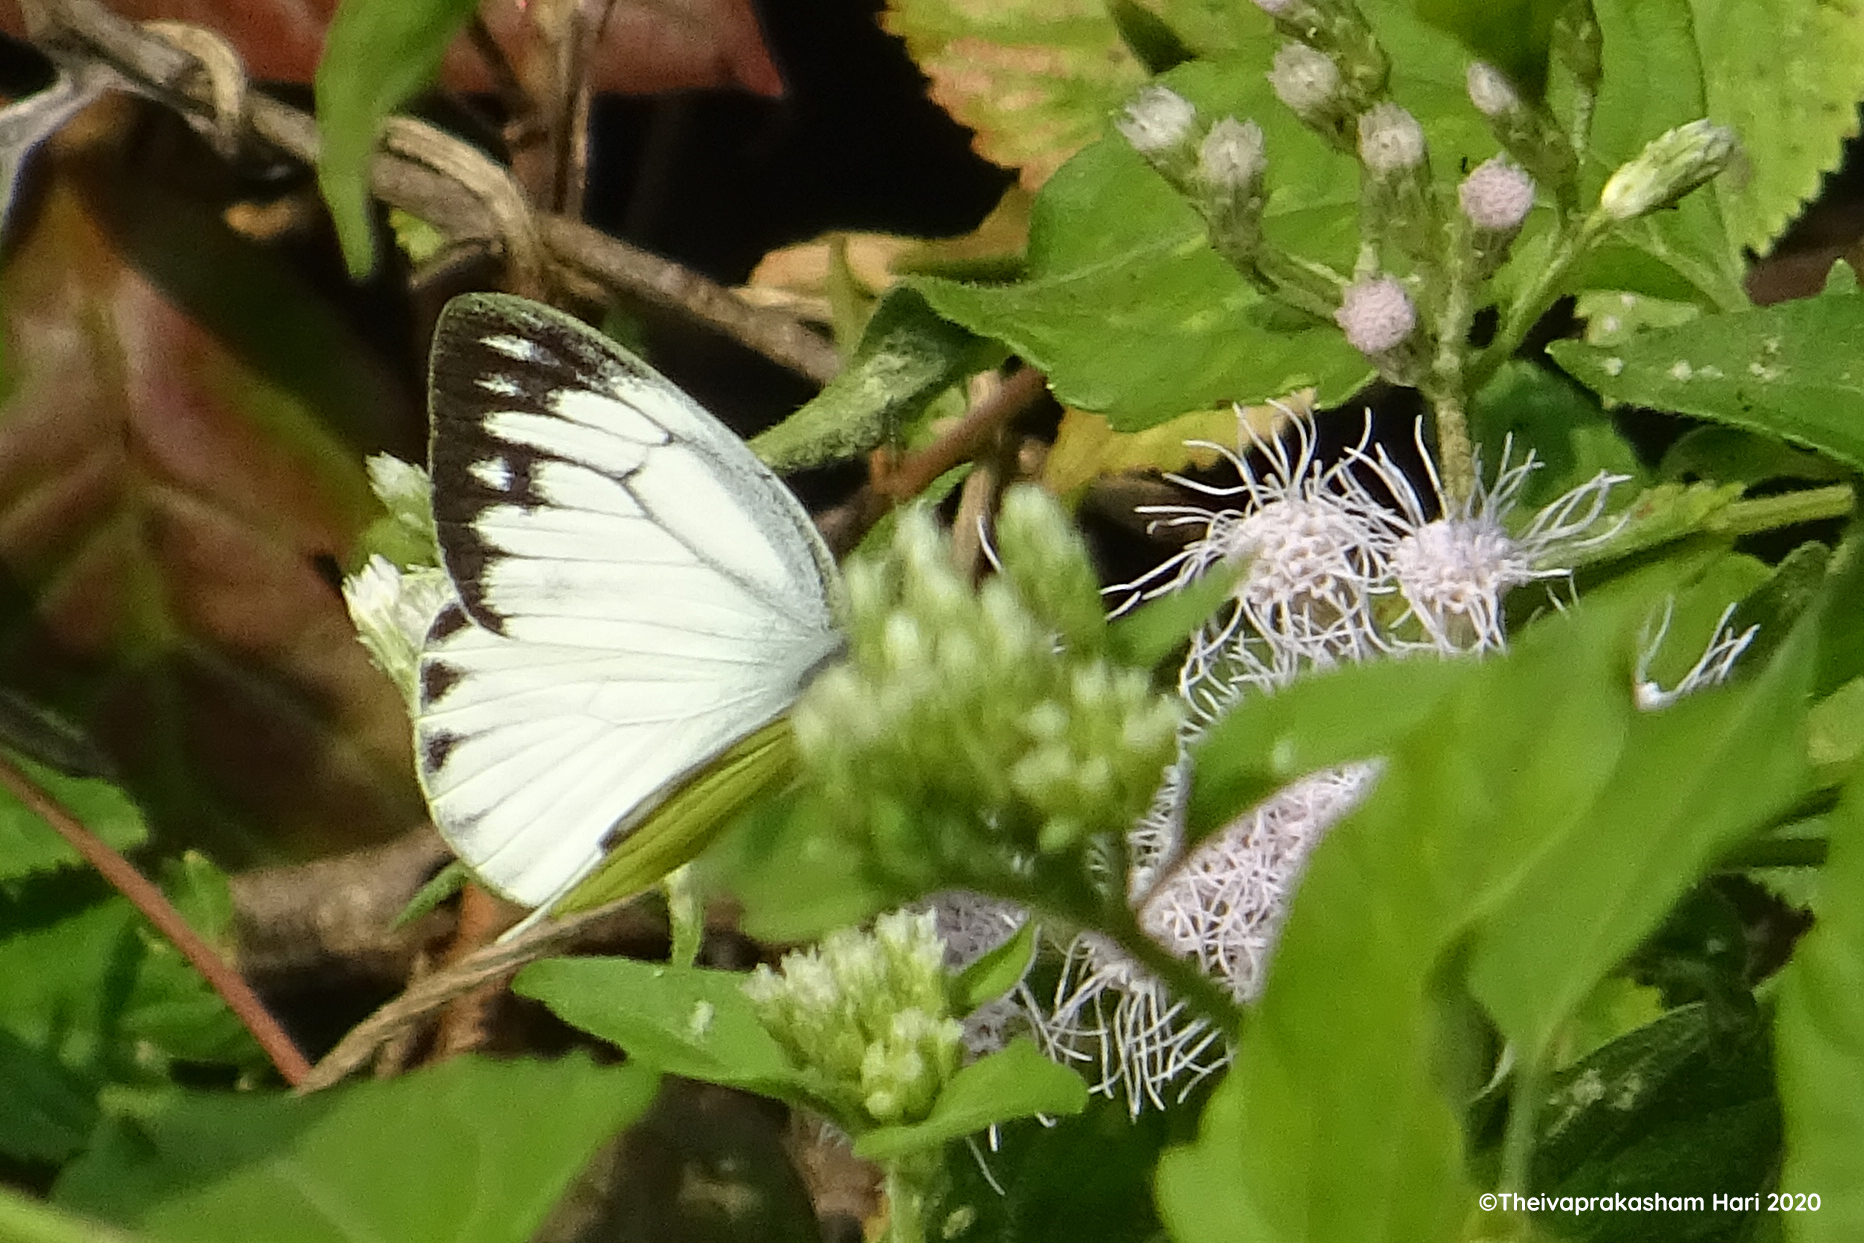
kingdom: Animalia
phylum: Arthropoda
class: Insecta
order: Lepidoptera
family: Pieridae
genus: Cepora
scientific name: Cepora nerissa
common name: Common gull
